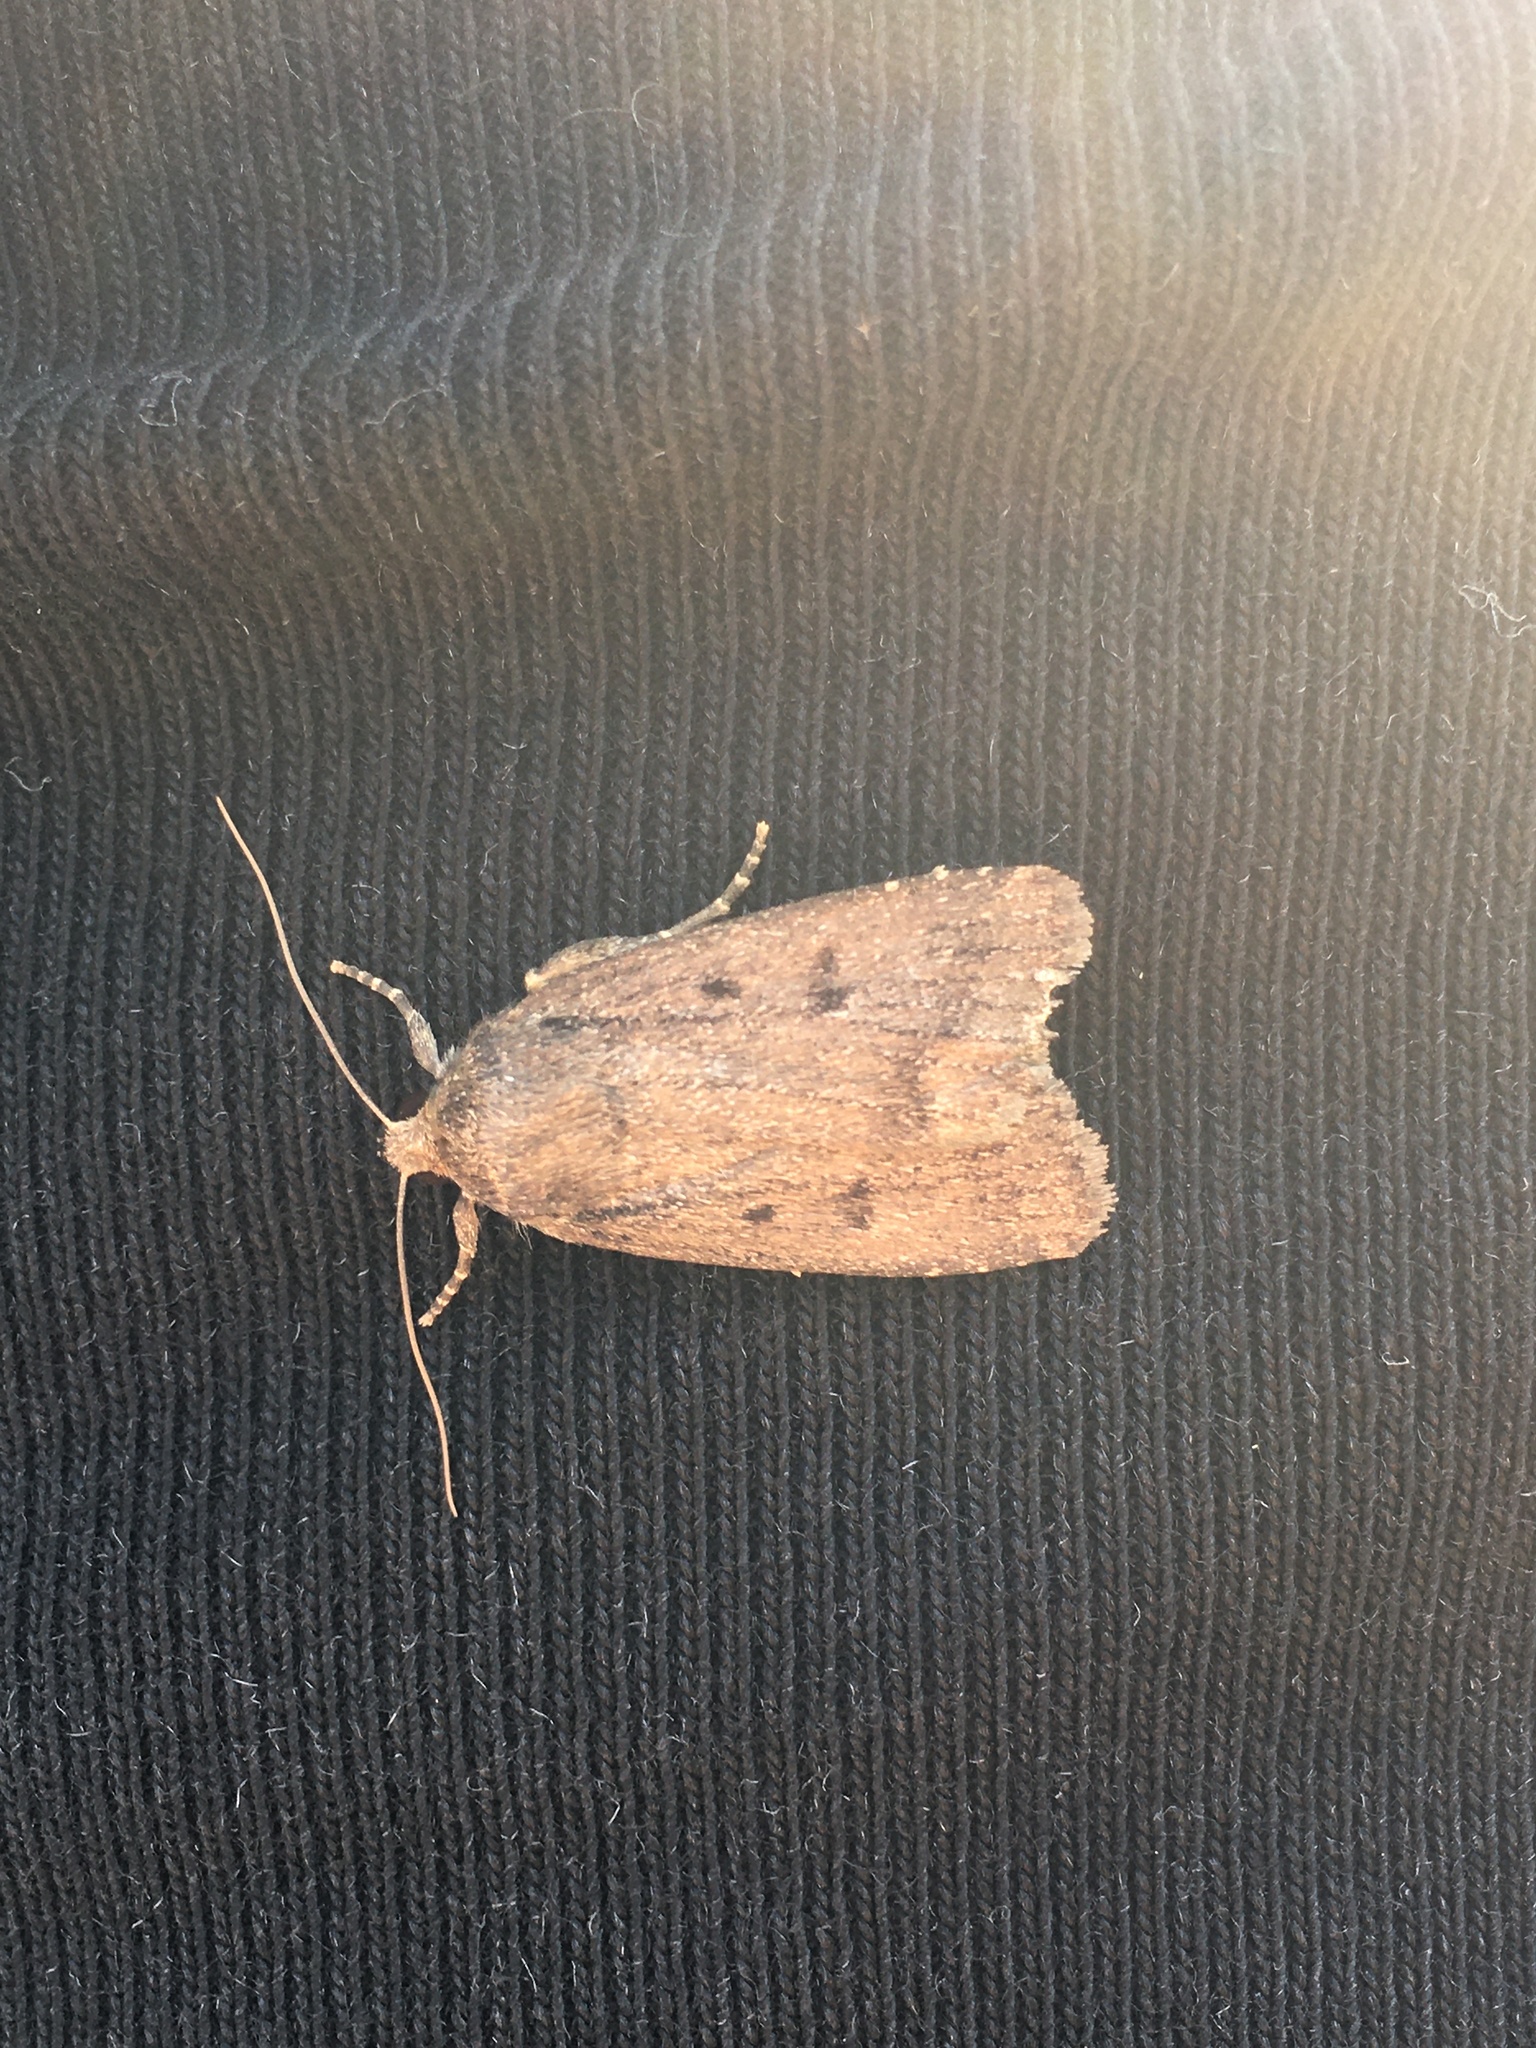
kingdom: Animalia
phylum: Arthropoda
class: Insecta
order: Lepidoptera
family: Noctuidae
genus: Amphipyra
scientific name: Amphipyra tragopoginis
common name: Mouse moth
